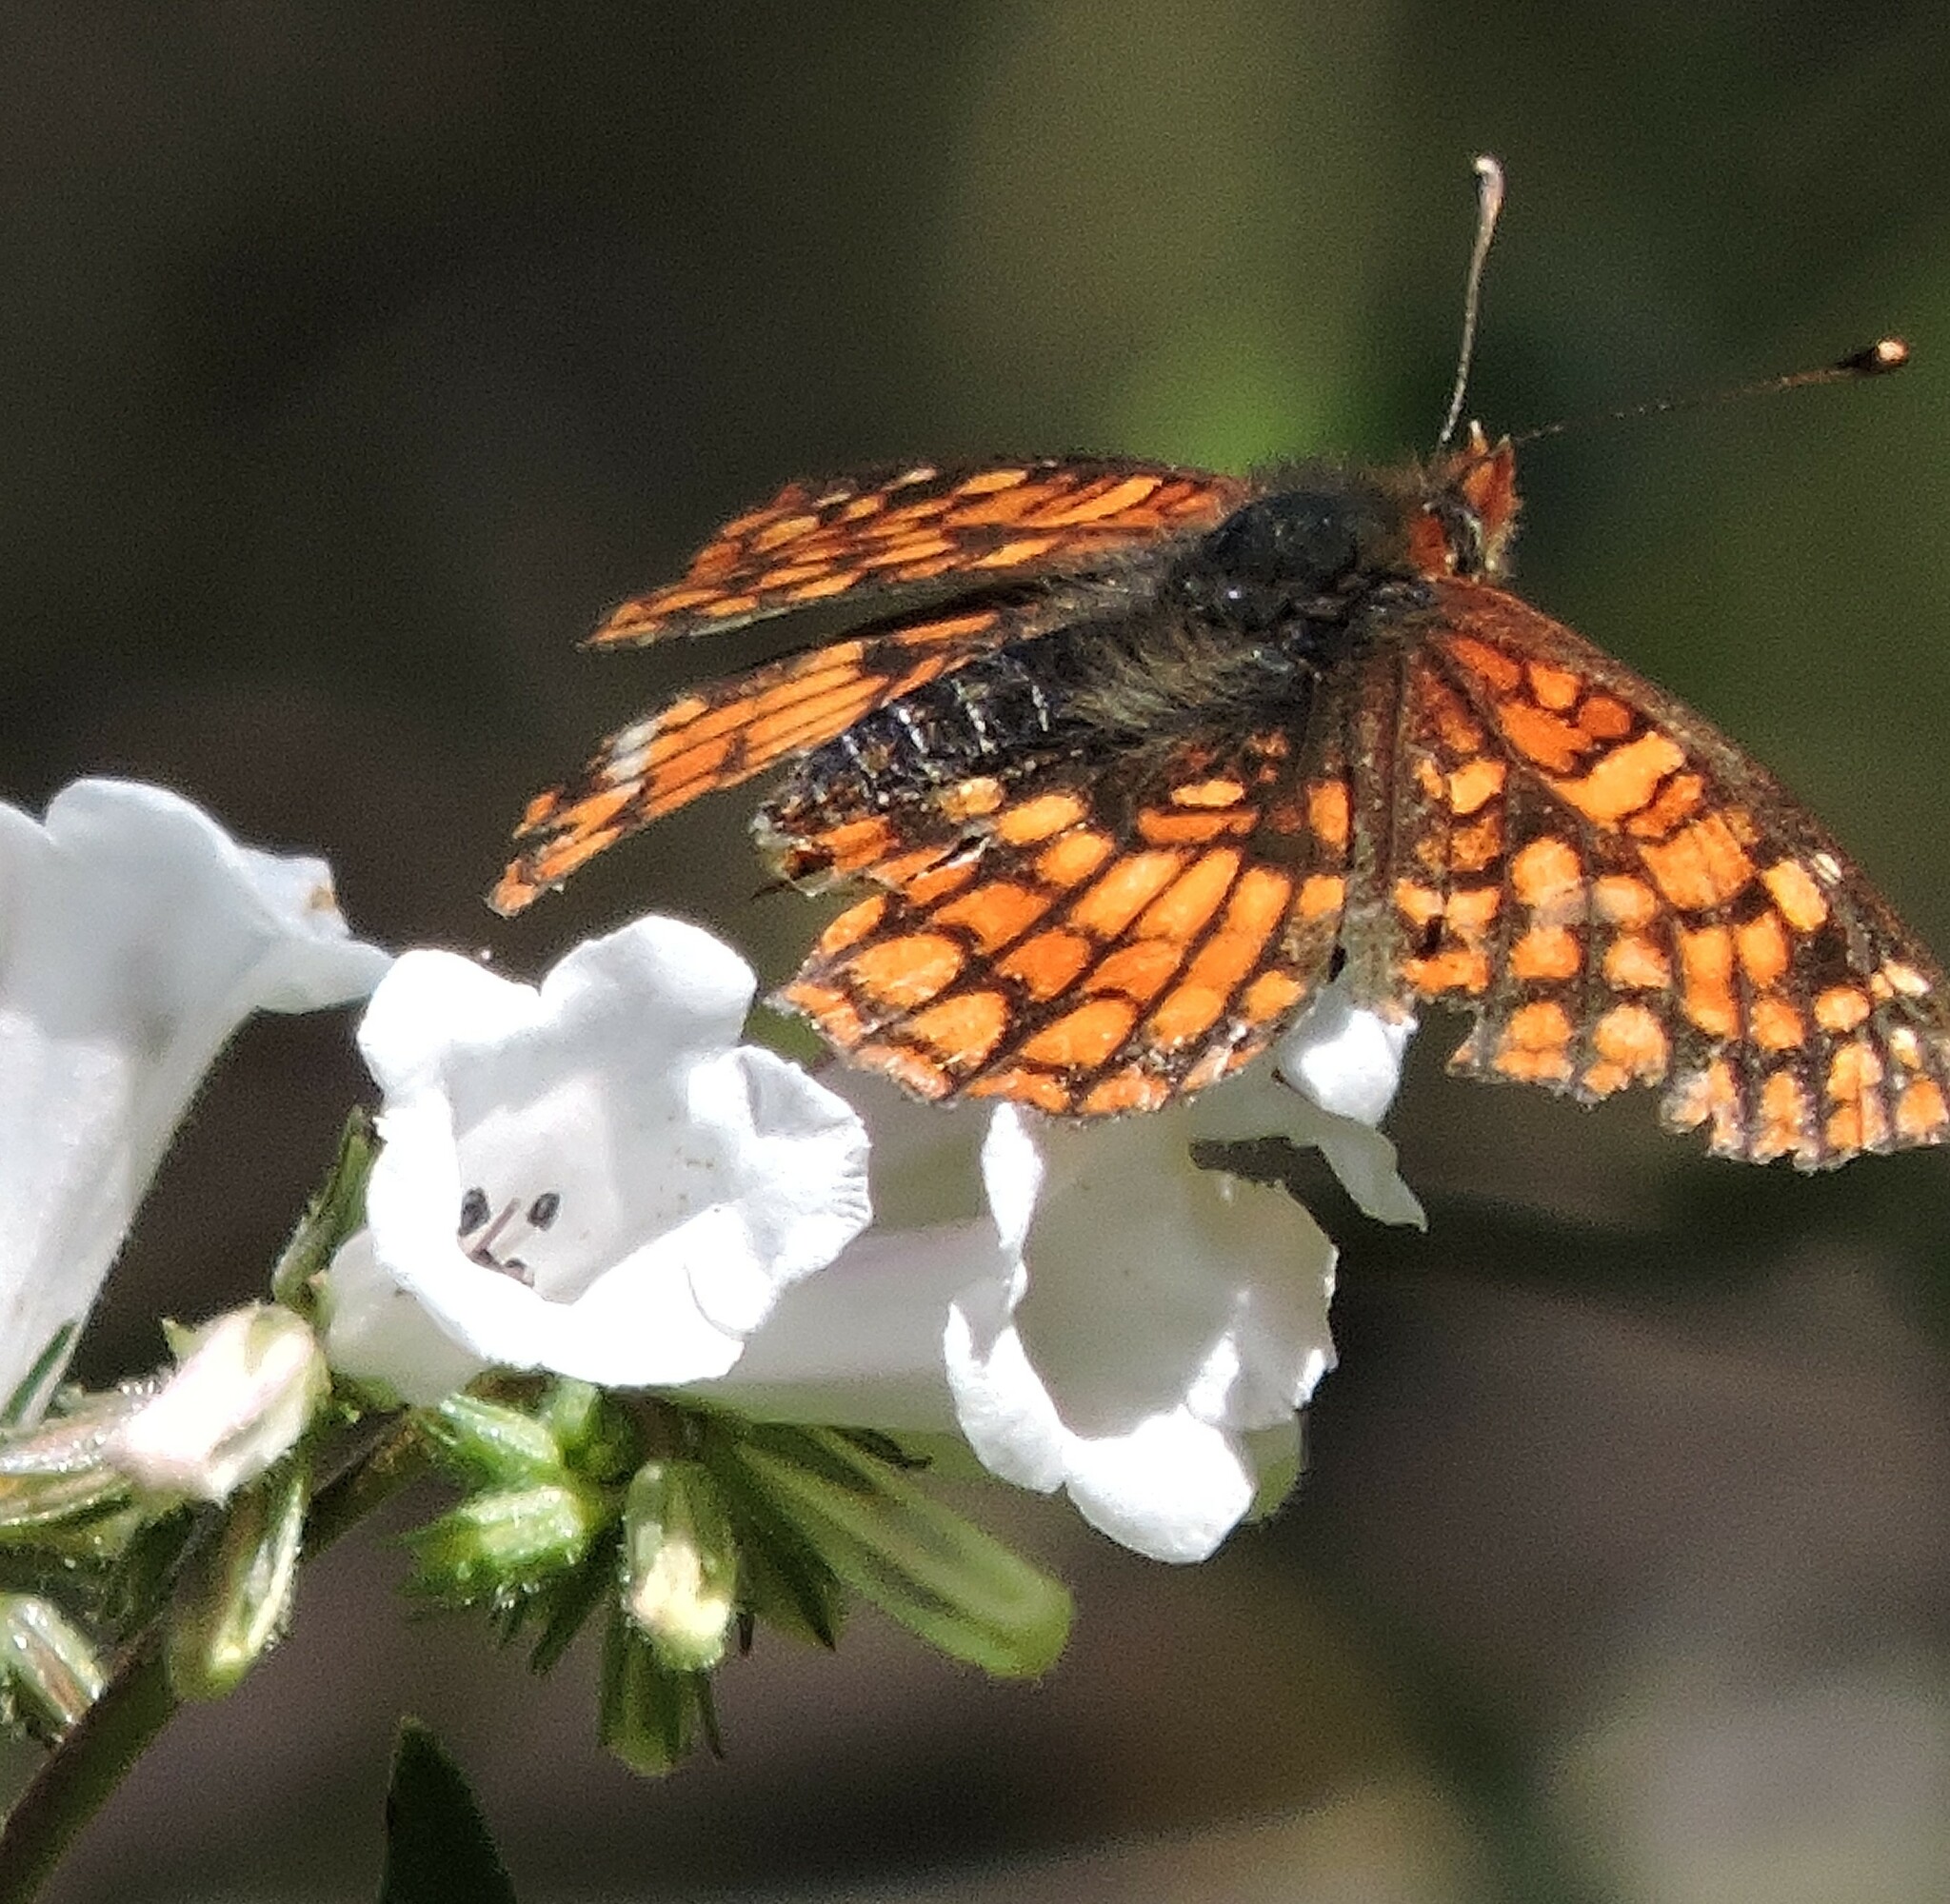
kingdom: Animalia
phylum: Arthropoda
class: Insecta
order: Lepidoptera
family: Nymphalidae
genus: Chlosyne
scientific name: Chlosyne palla
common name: Northern checkerspot
